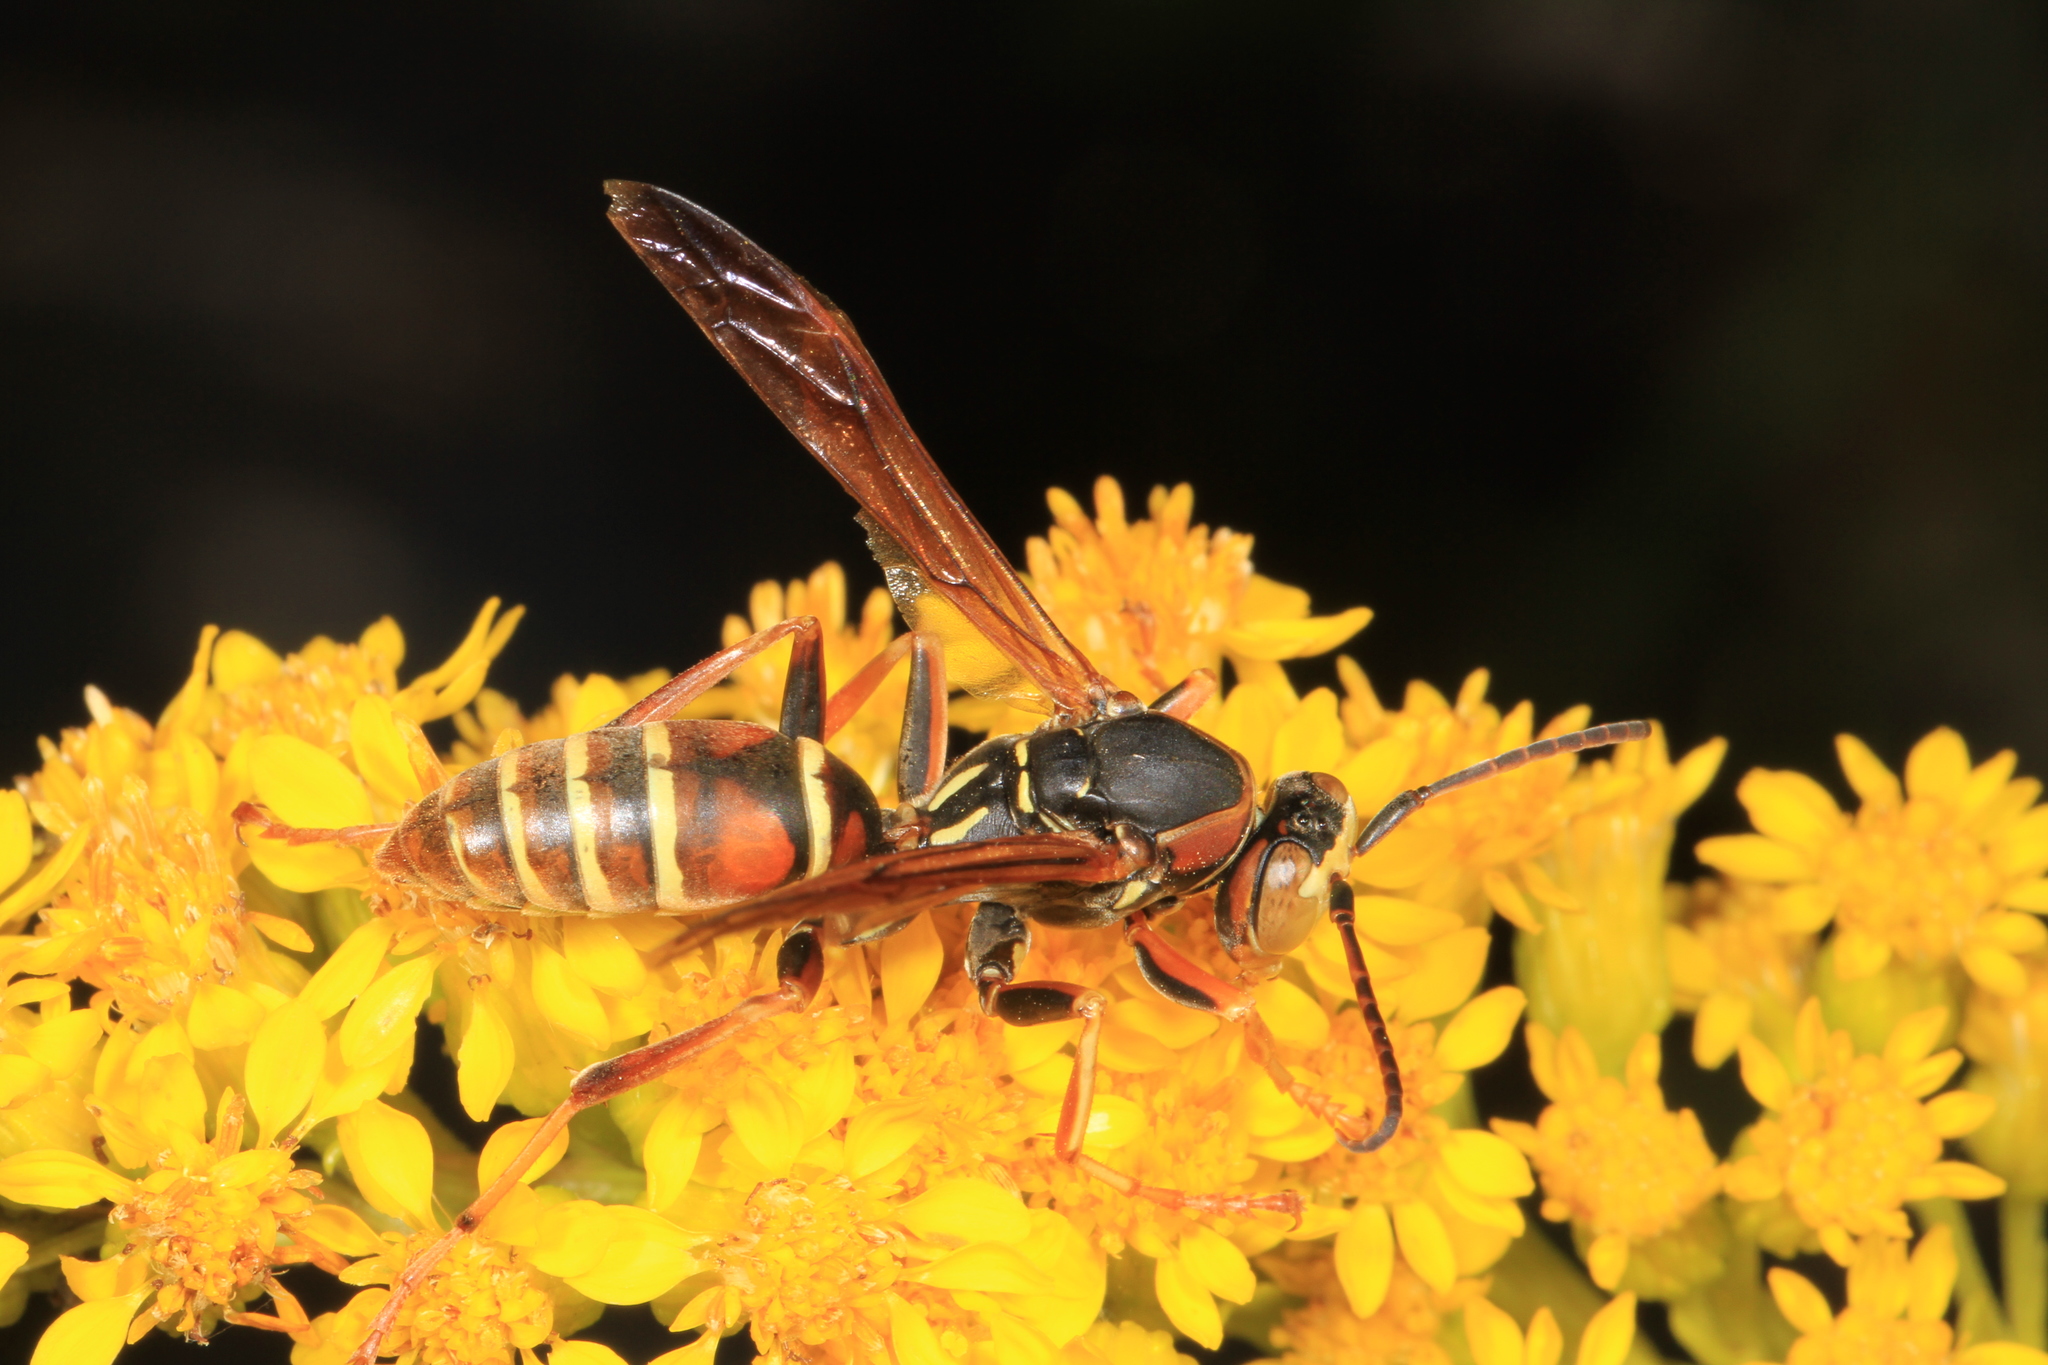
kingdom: Animalia
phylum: Arthropoda
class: Insecta
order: Hymenoptera
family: Eumenidae
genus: Polistes
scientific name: Polistes dorsalis
